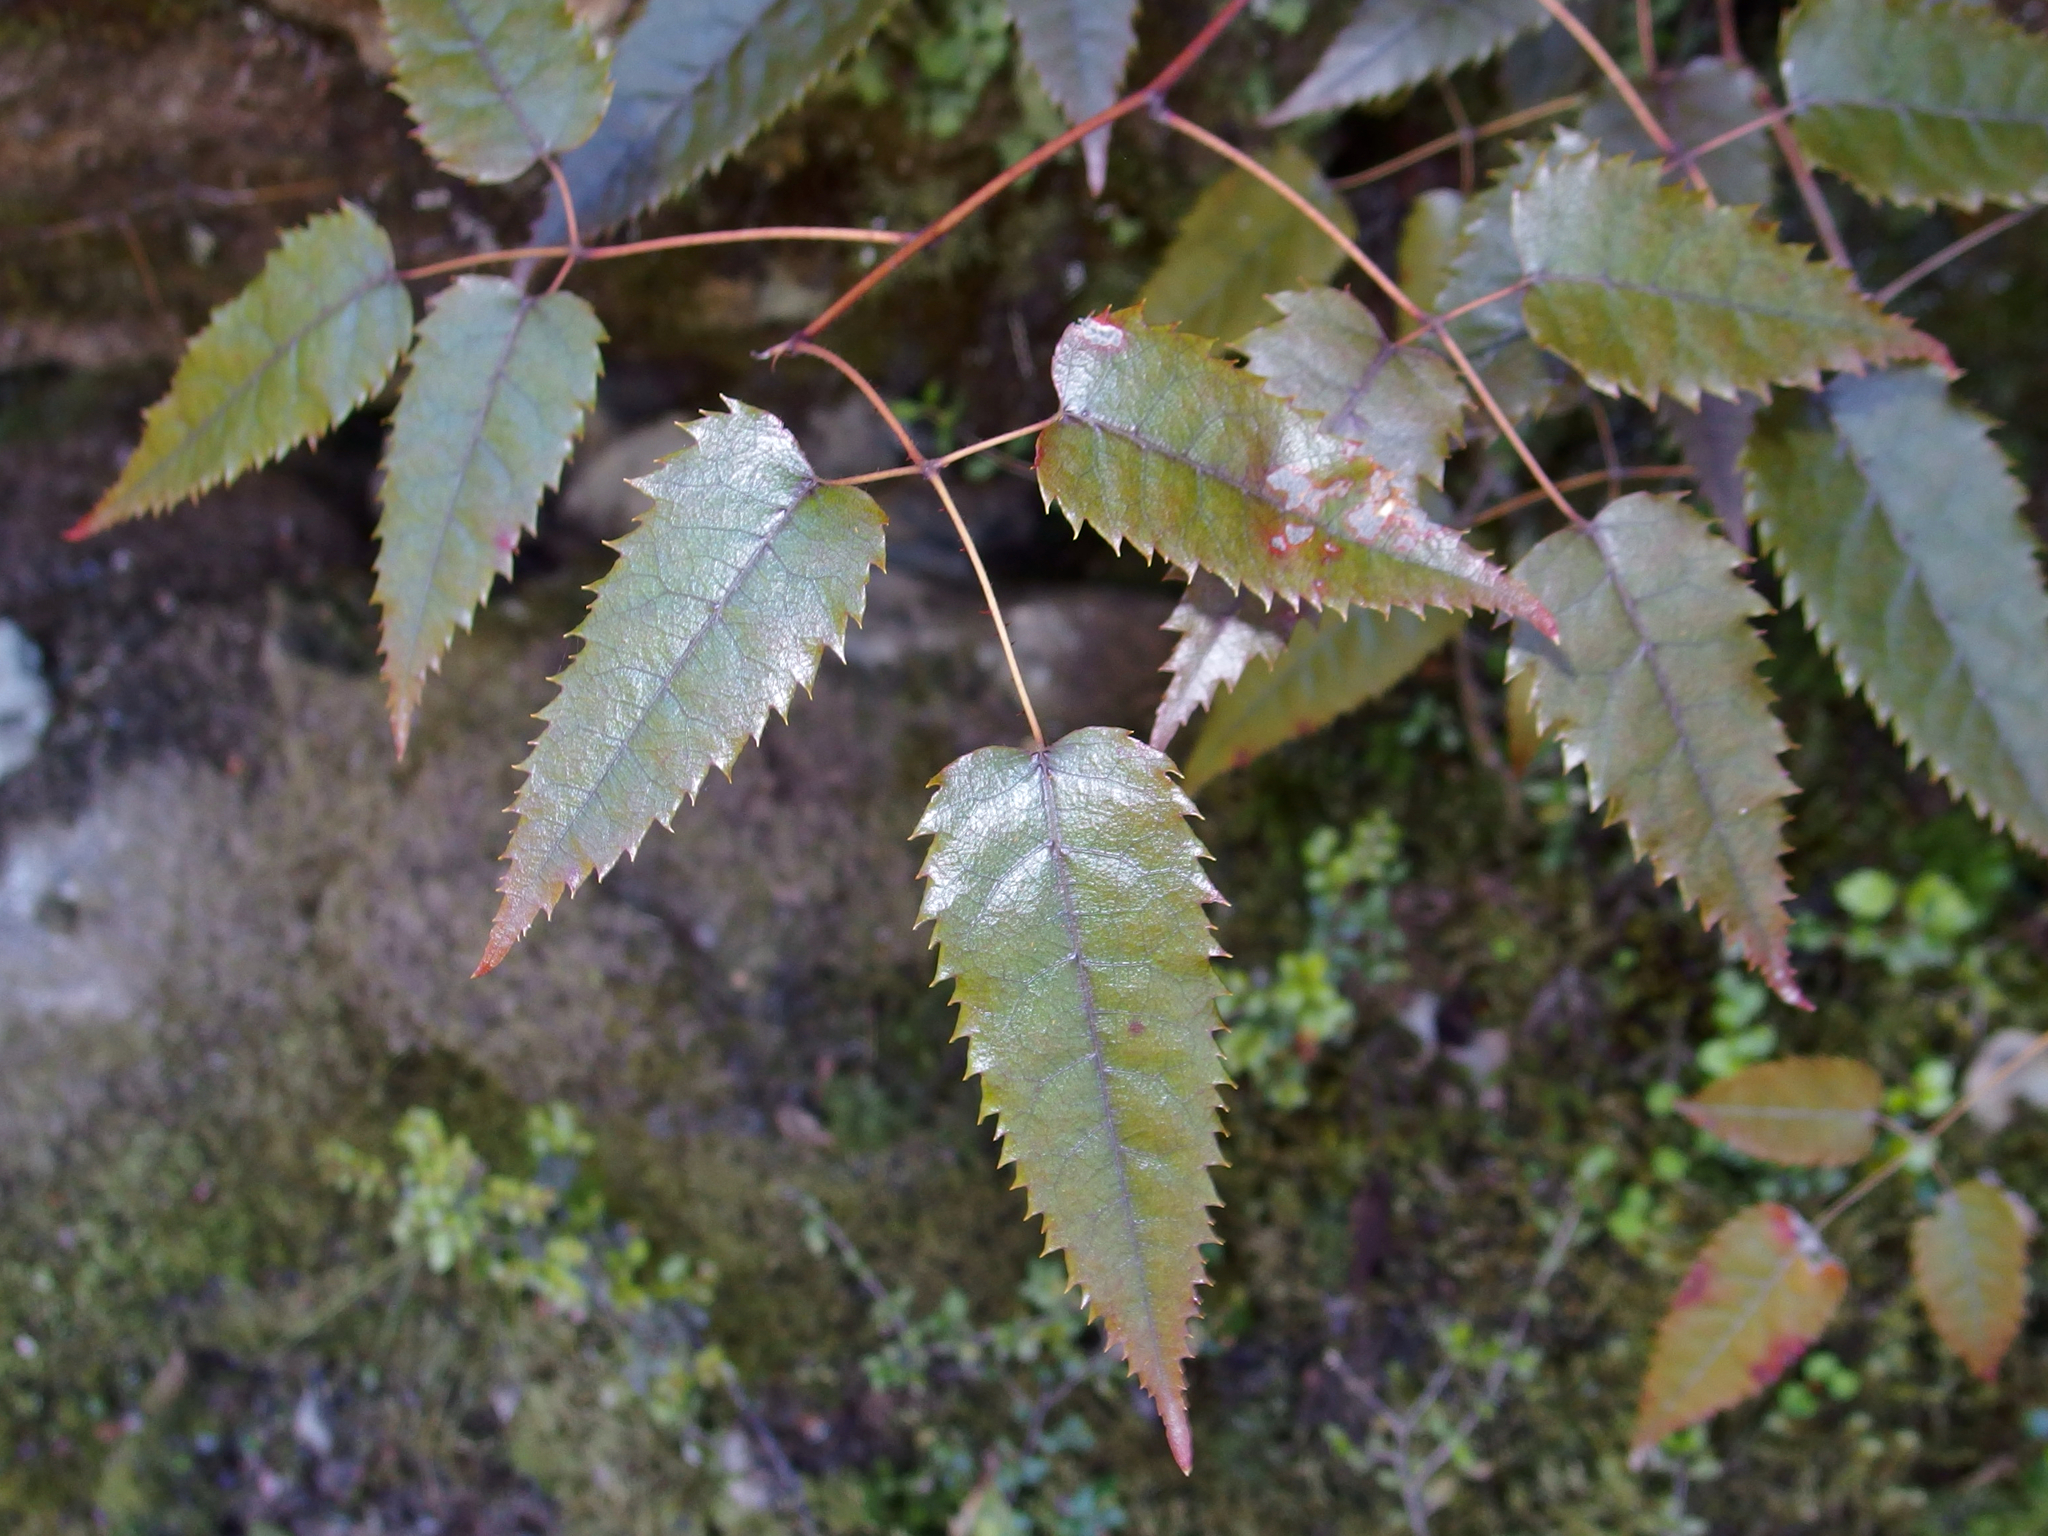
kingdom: Plantae
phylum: Tracheophyta
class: Magnoliopsida
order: Rosales
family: Rosaceae
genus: Rubus
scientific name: Rubus cissoides
